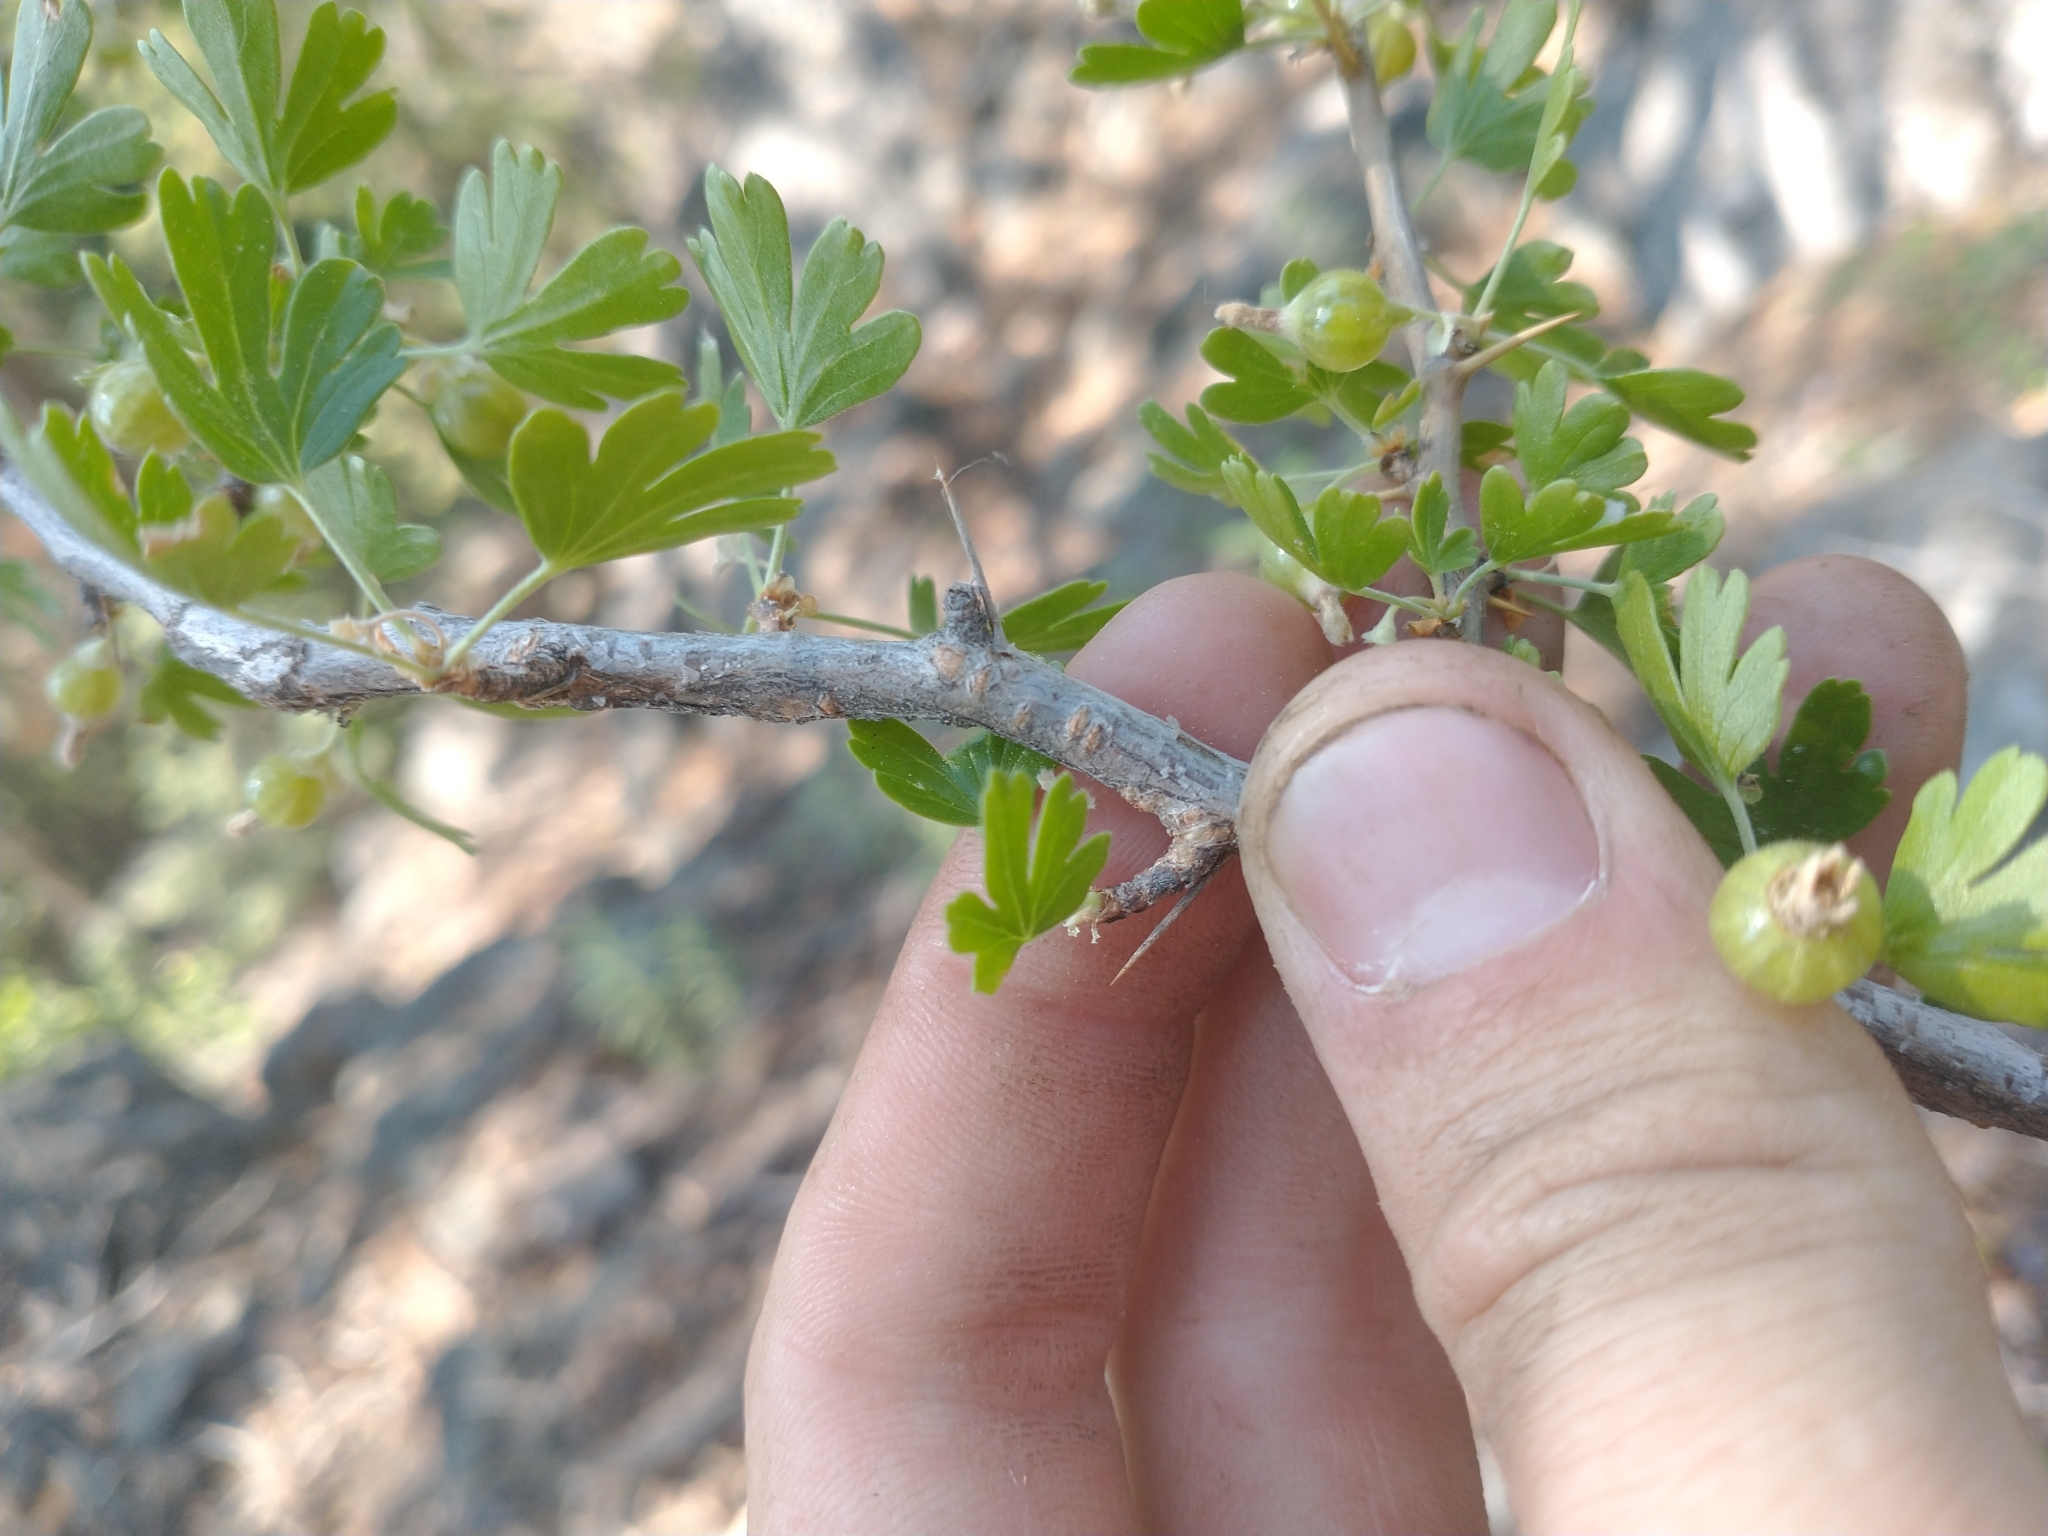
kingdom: Plantae
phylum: Tracheophyta
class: Magnoliopsida
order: Saxifragales
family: Grossulariaceae
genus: Ribes
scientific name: Ribes velutinum
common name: Desert gooseberry
